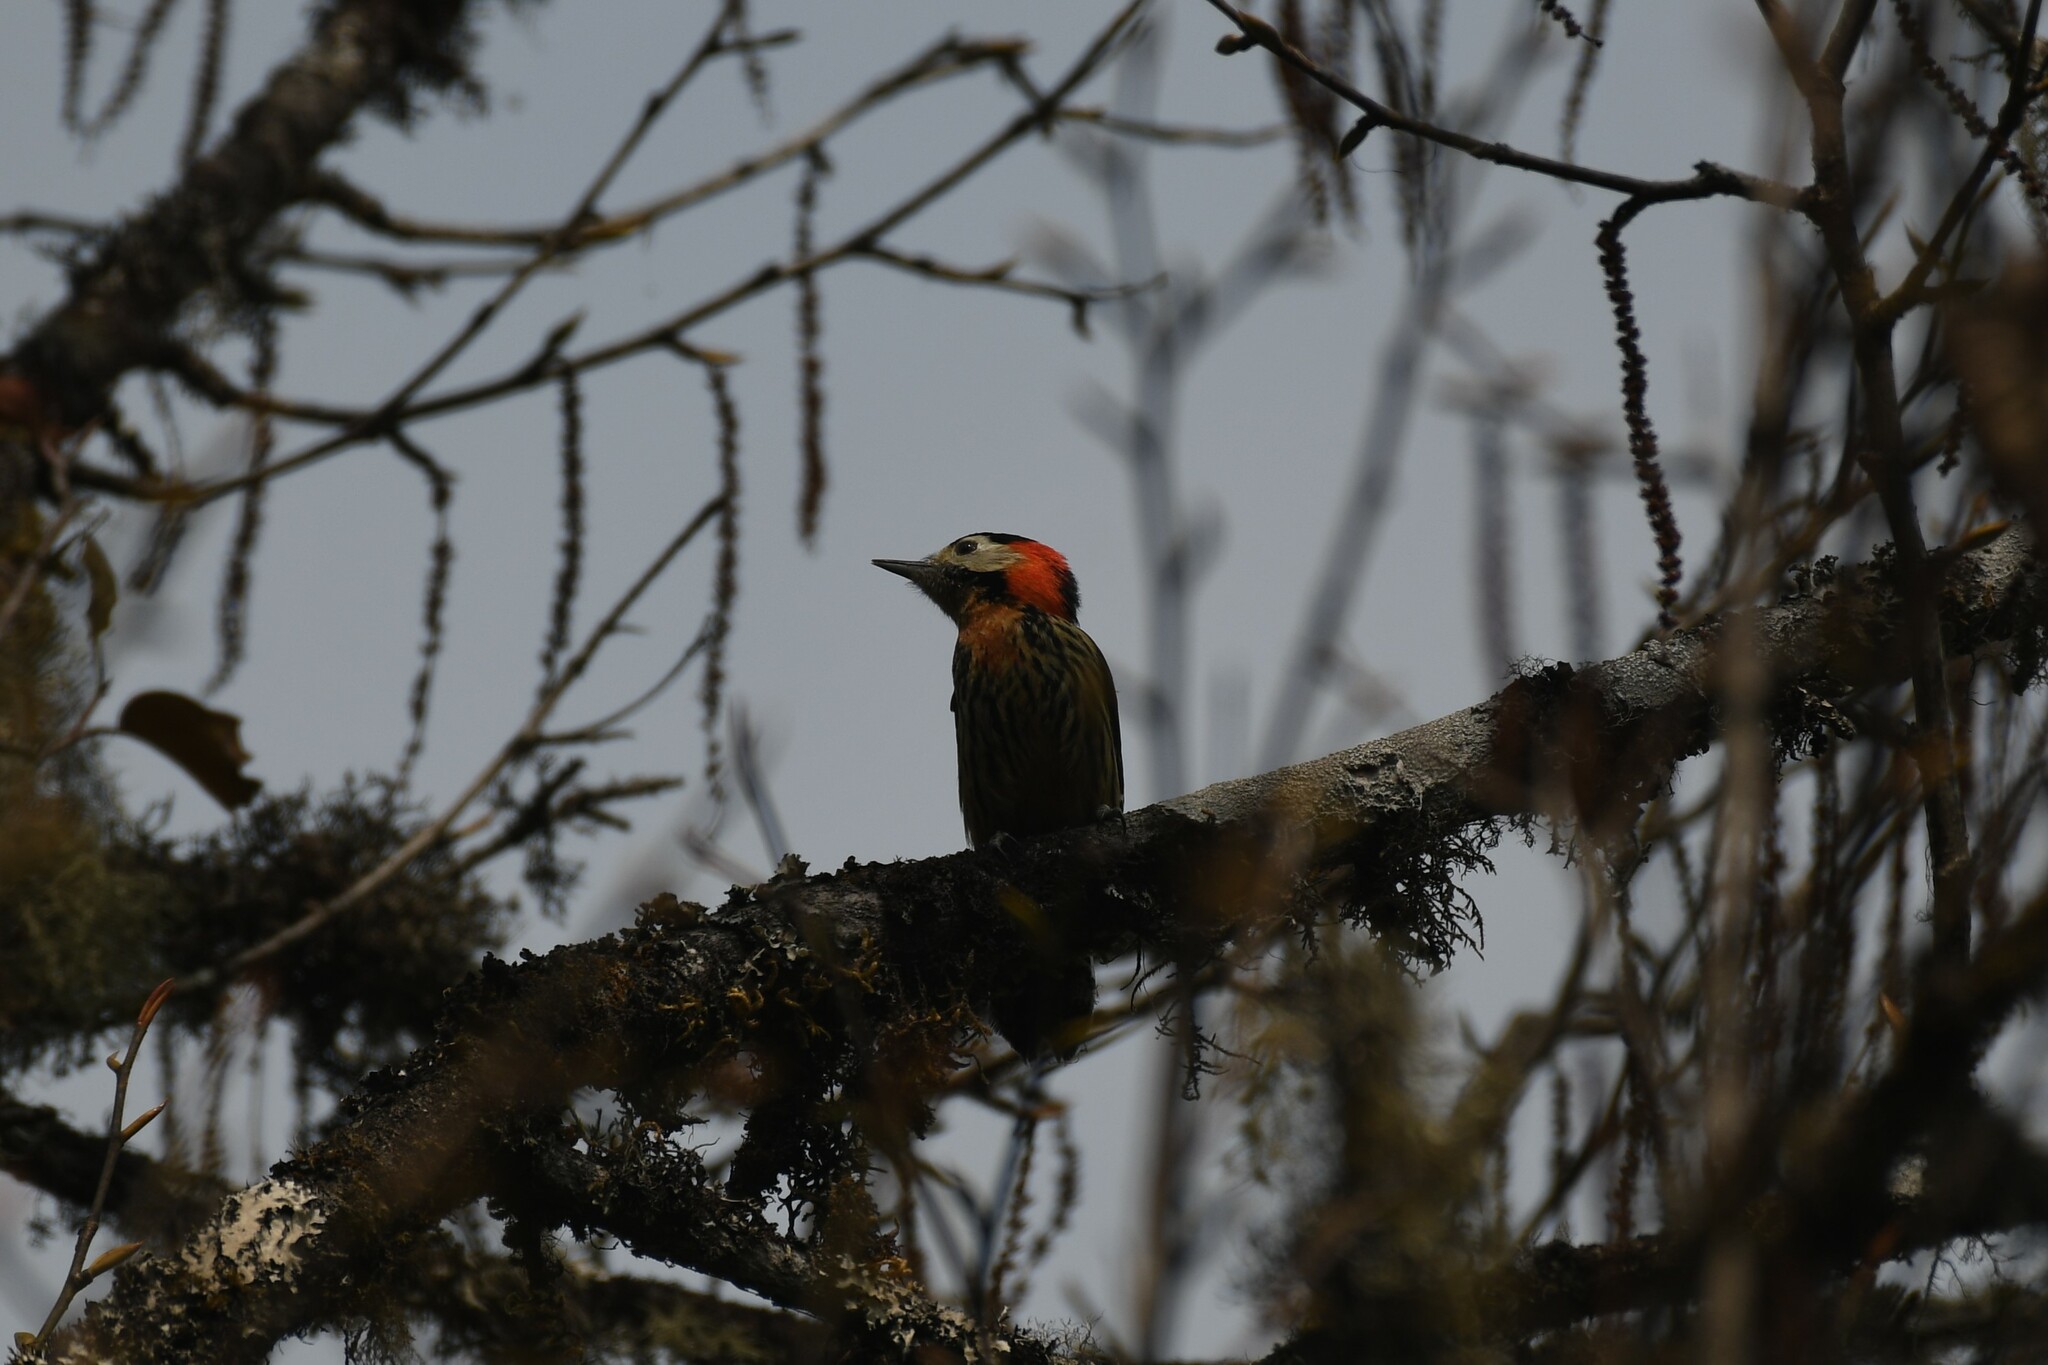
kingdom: Animalia
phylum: Chordata
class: Aves
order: Piciformes
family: Picidae
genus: Dryobates
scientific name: Dryobates cathpharius
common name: Crimson-breasted woodpecker
